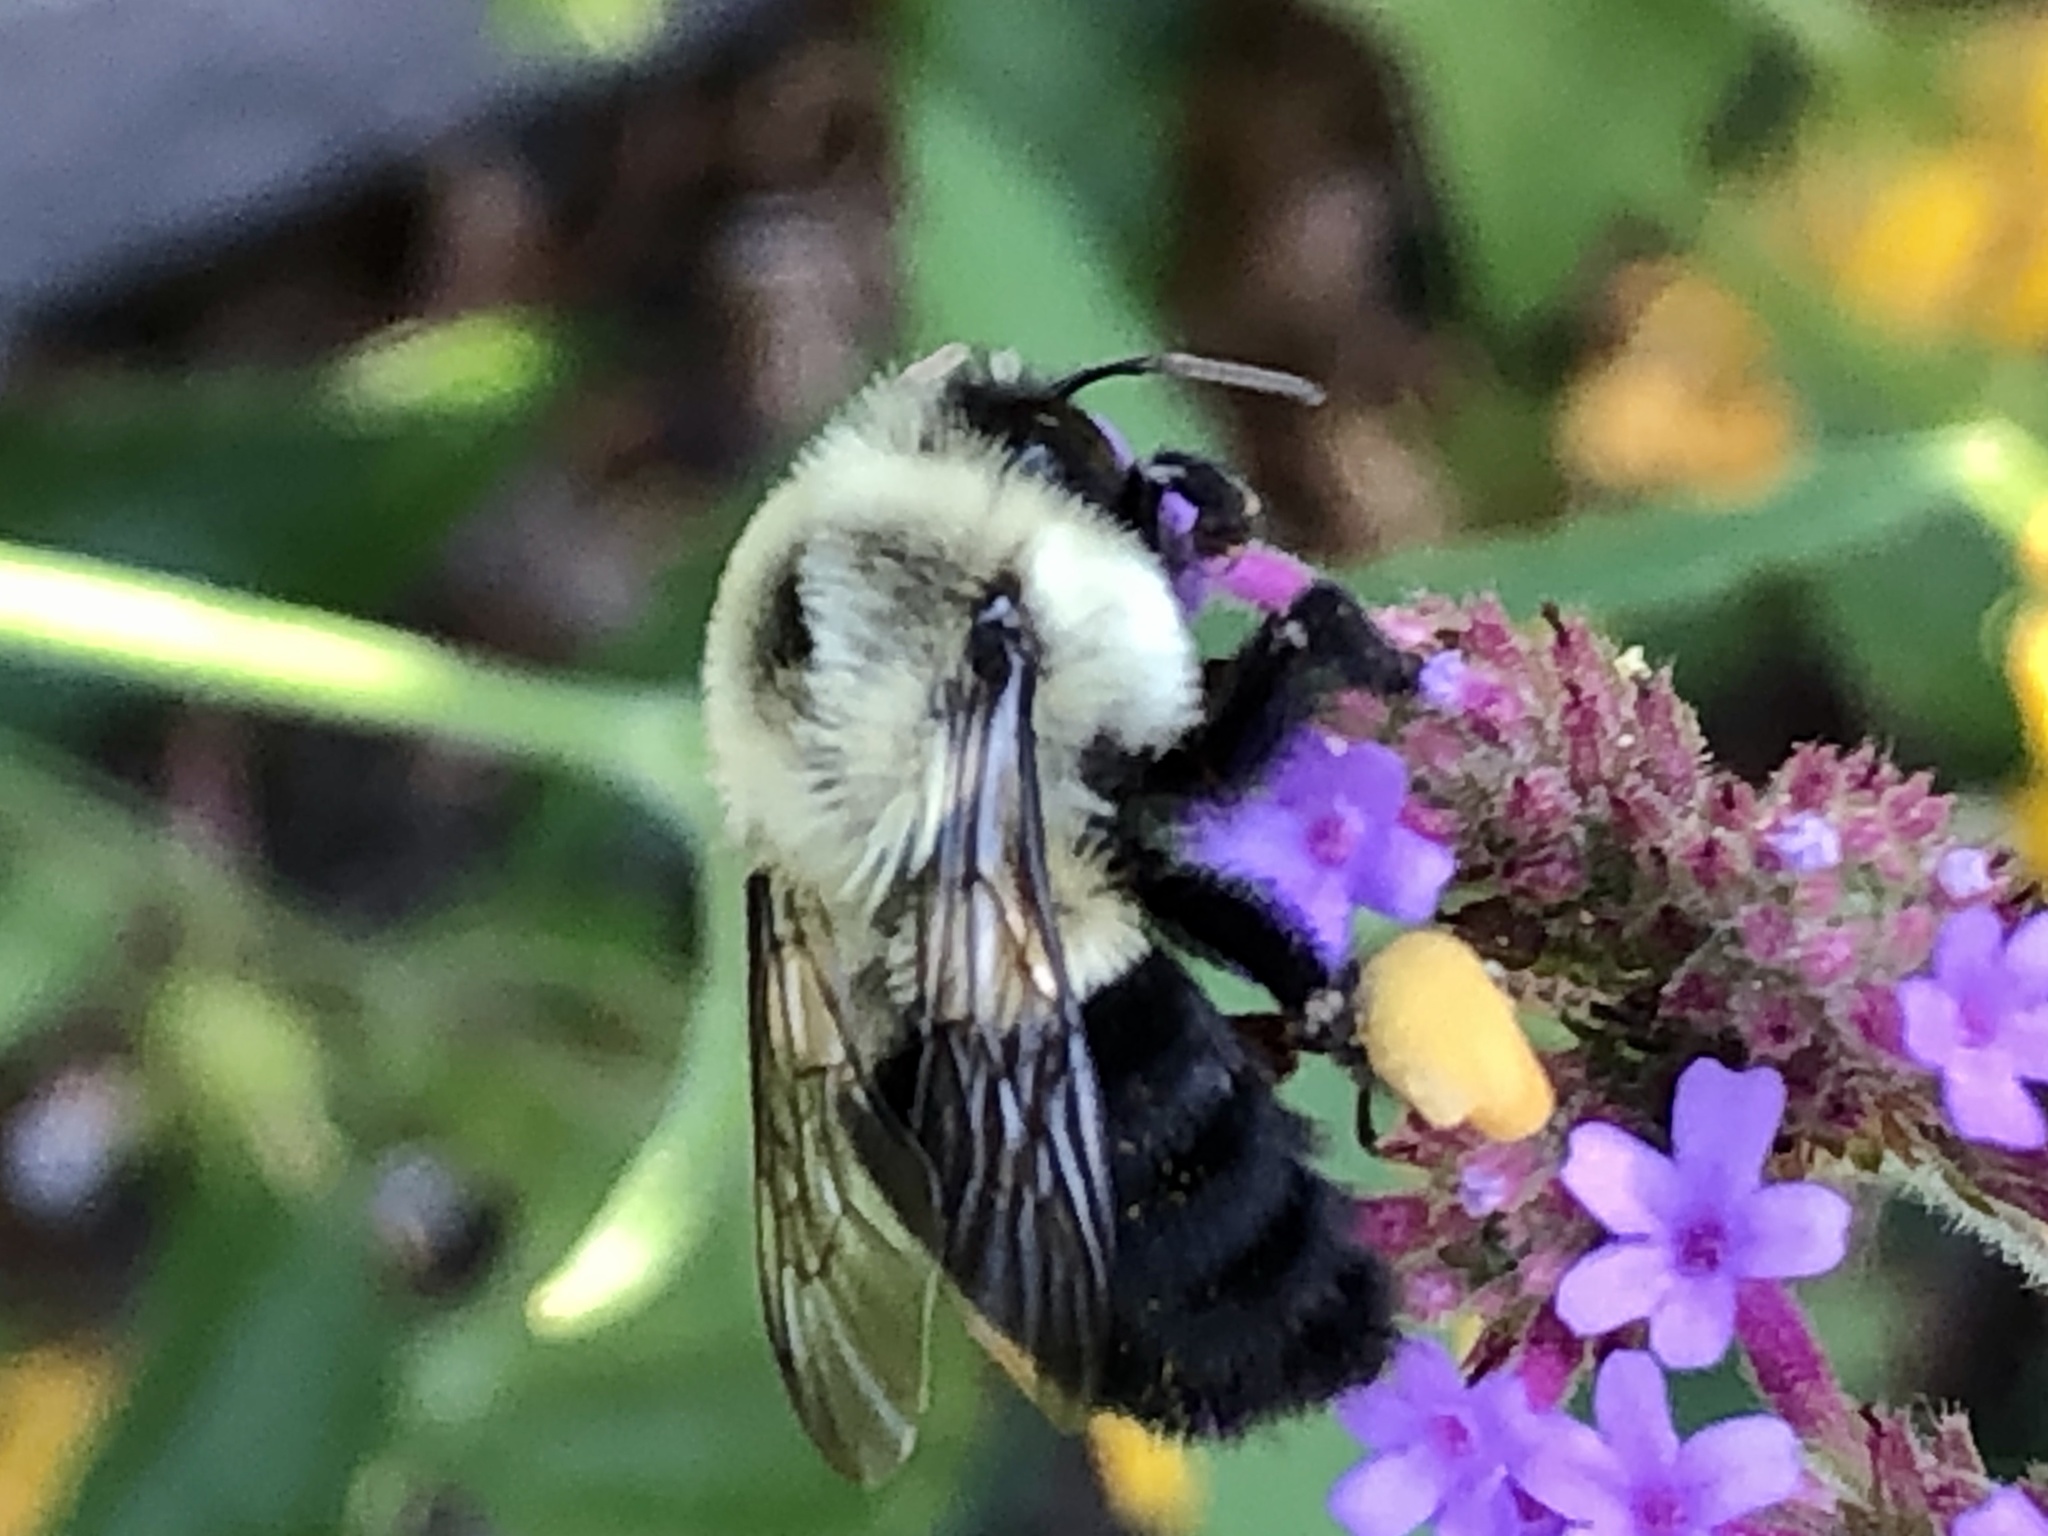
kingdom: Animalia
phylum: Arthropoda
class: Insecta
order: Hymenoptera
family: Apidae
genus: Bombus
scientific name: Bombus impatiens
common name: Common eastern bumble bee
